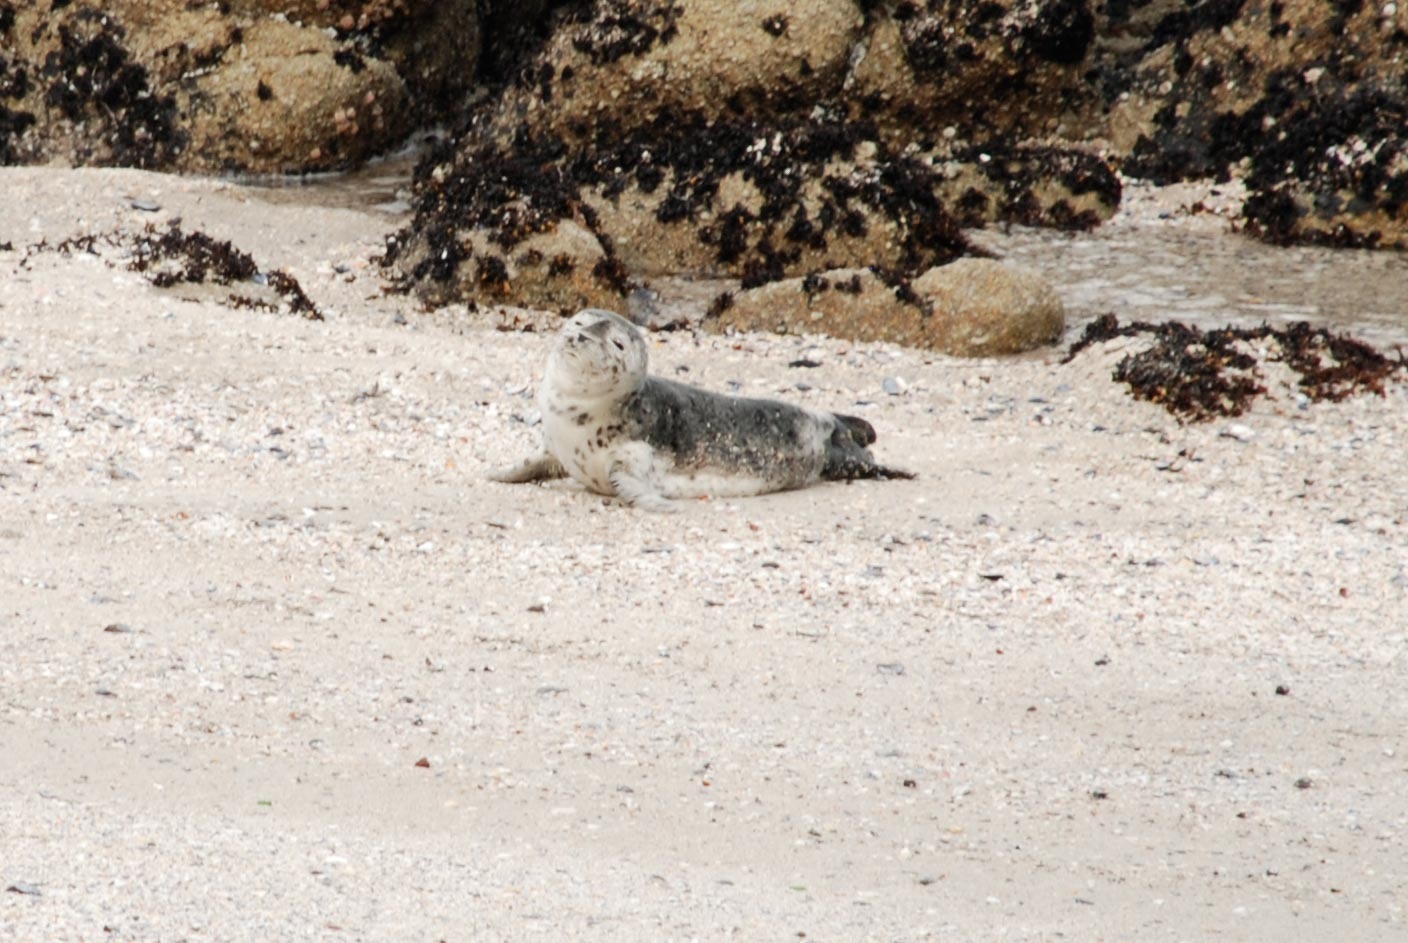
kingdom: Animalia
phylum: Chordata
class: Mammalia
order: Carnivora
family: Phocidae
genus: Phoca
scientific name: Phoca vitulina
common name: Harbor seal
